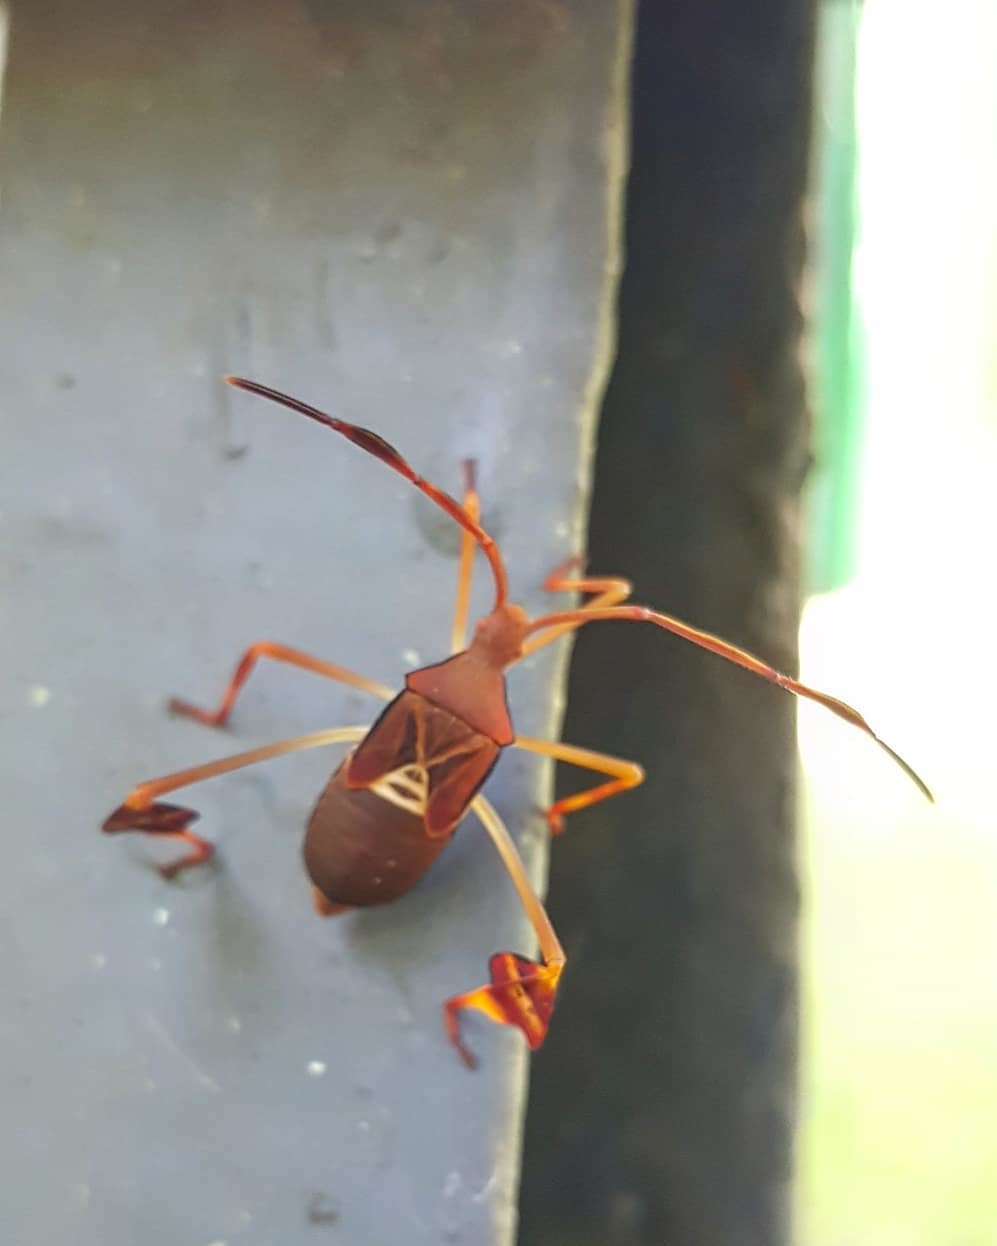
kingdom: Animalia
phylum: Arthropoda
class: Insecta
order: Hemiptera
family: Coreidae
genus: Bitta
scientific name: Bitta
